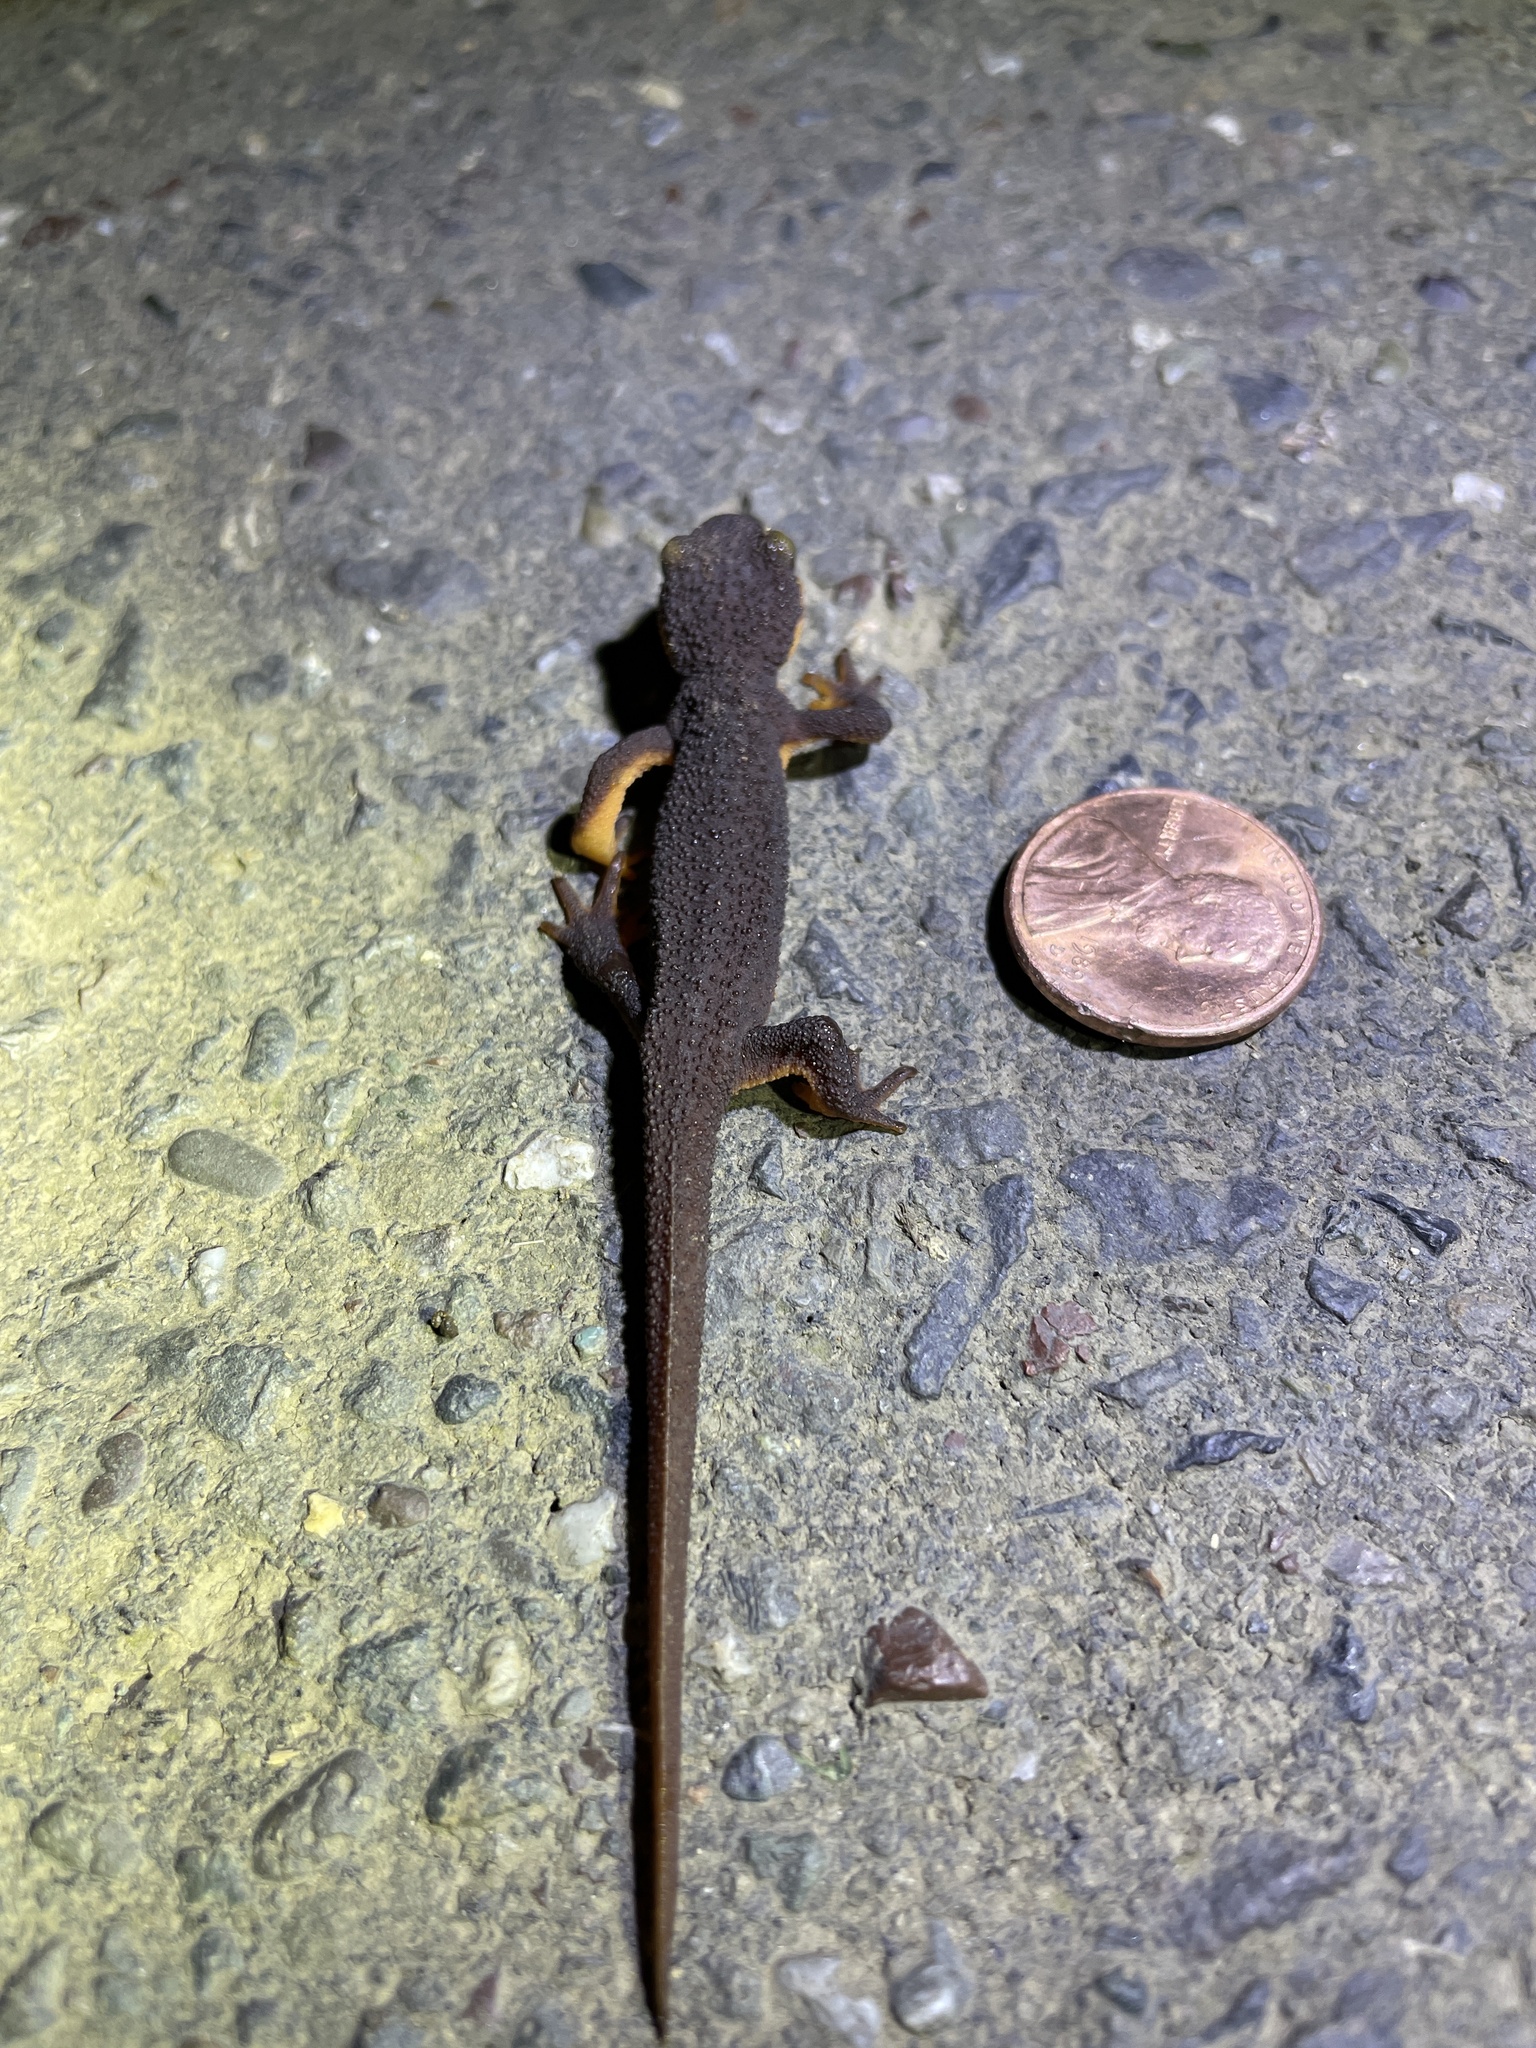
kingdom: Animalia
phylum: Chordata
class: Amphibia
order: Caudata
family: Salamandridae
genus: Taricha
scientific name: Taricha torosa
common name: California newt
